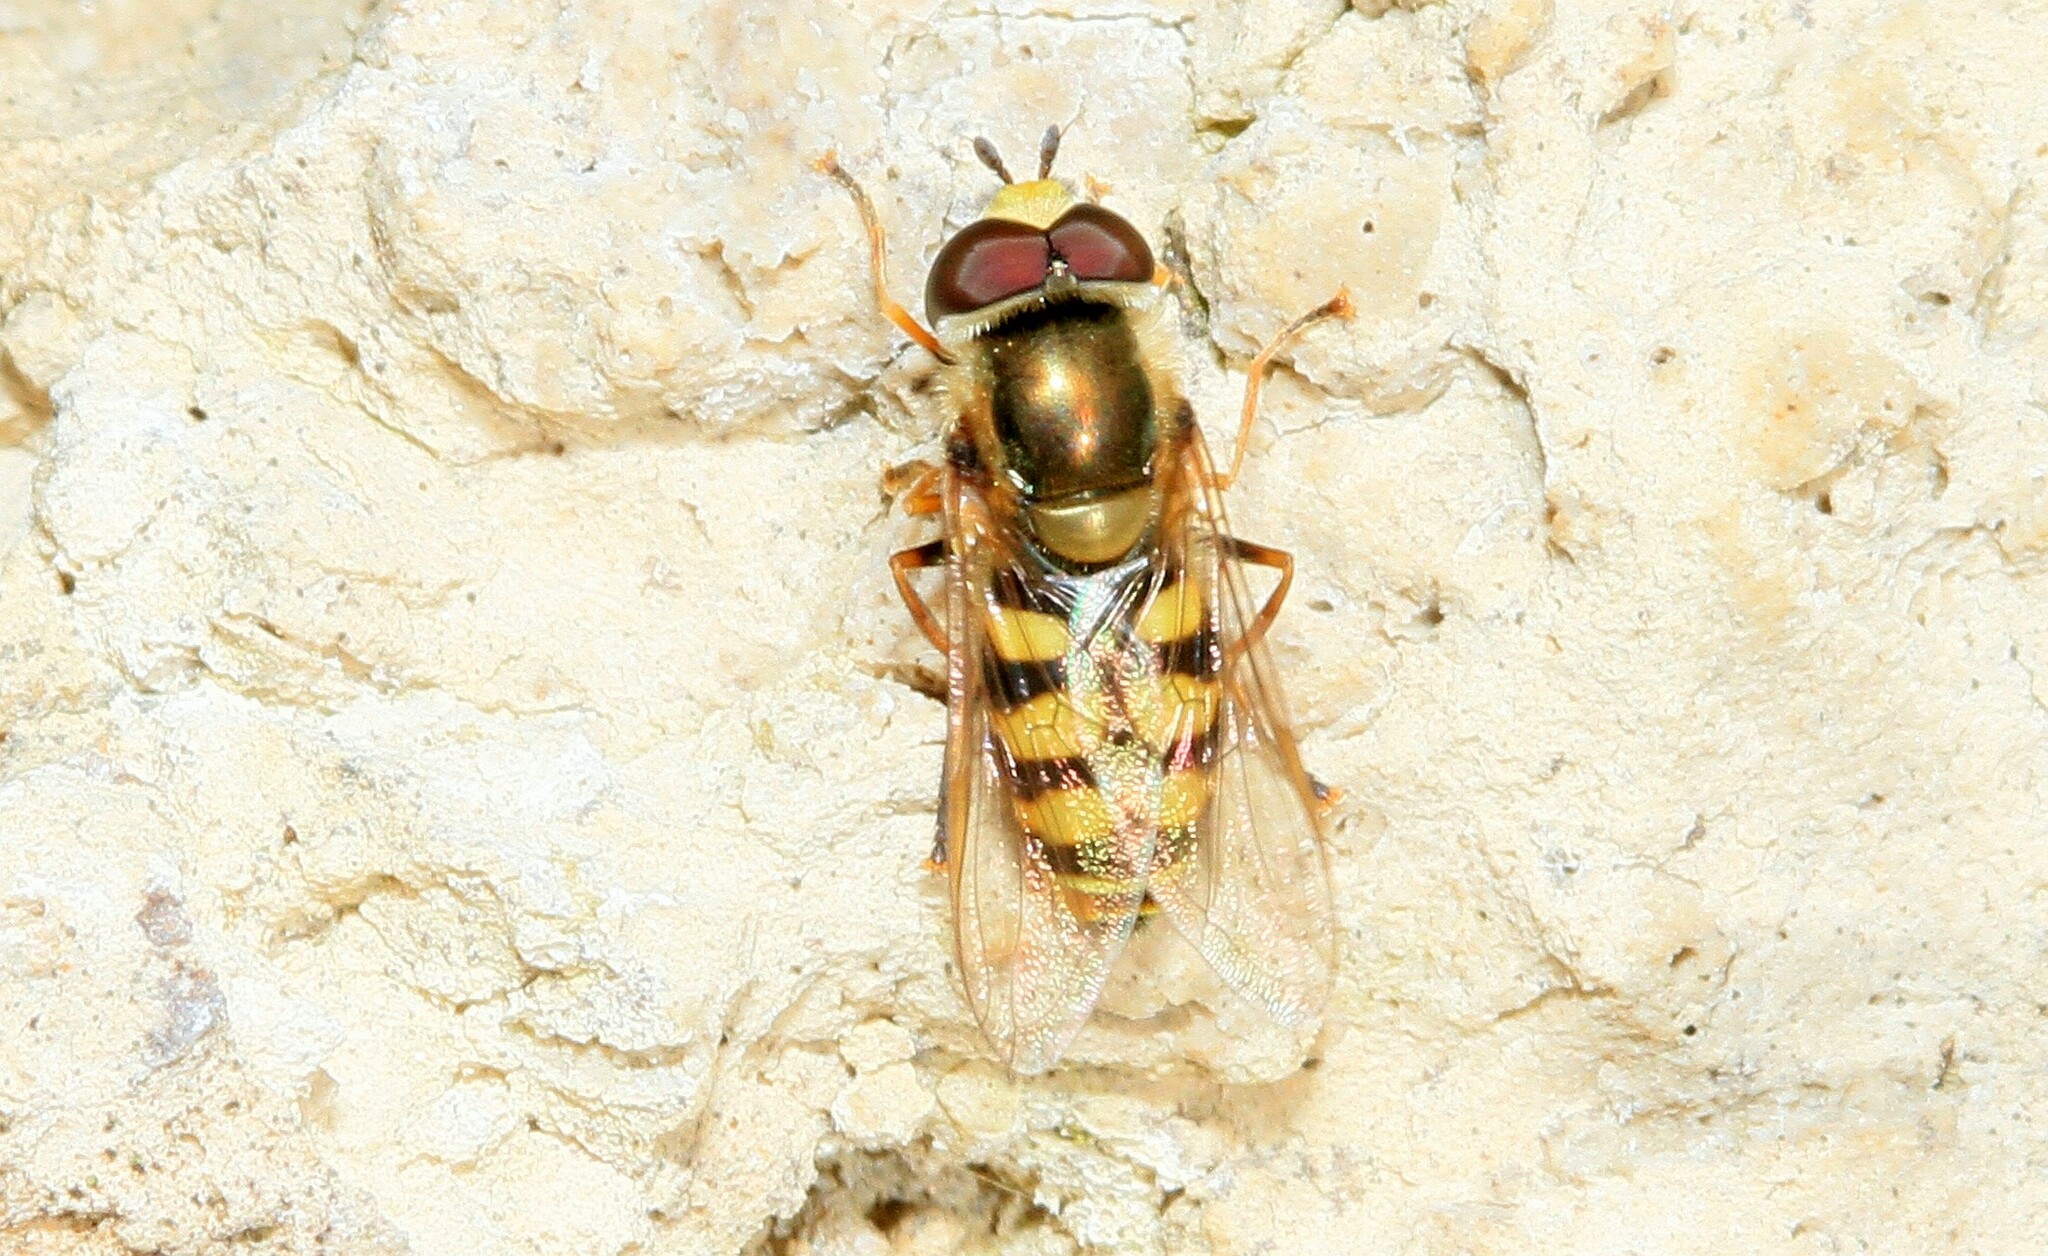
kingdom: Animalia
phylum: Arthropoda
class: Insecta
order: Diptera
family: Syrphidae
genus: Eupeodes
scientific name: Eupeodes corollae
